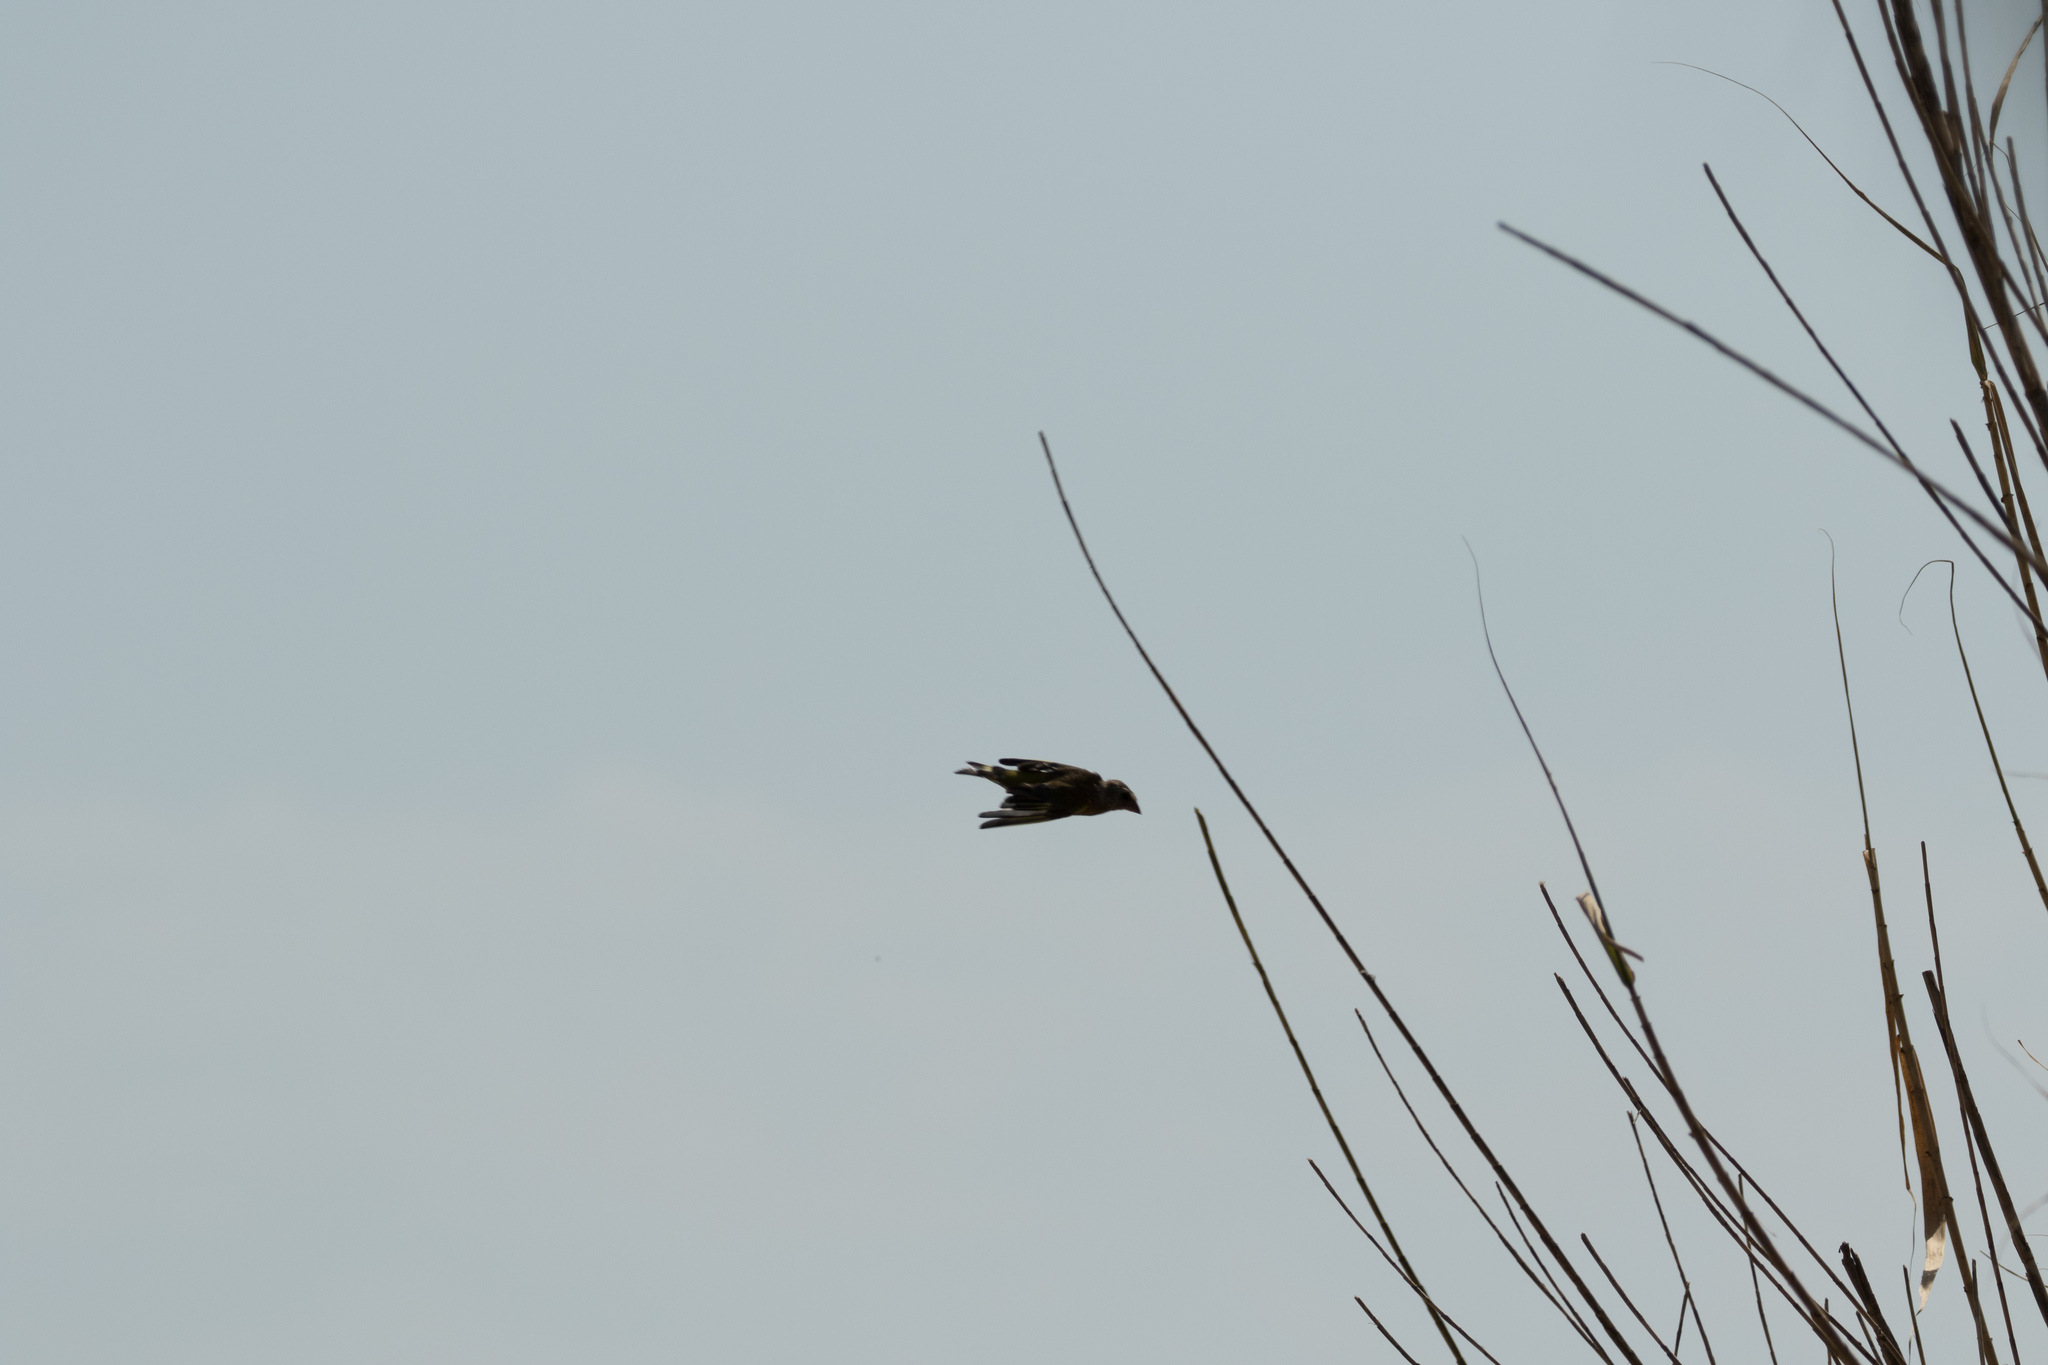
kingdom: Plantae
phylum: Tracheophyta
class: Liliopsida
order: Poales
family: Poaceae
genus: Chloris
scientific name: Chloris chloris
